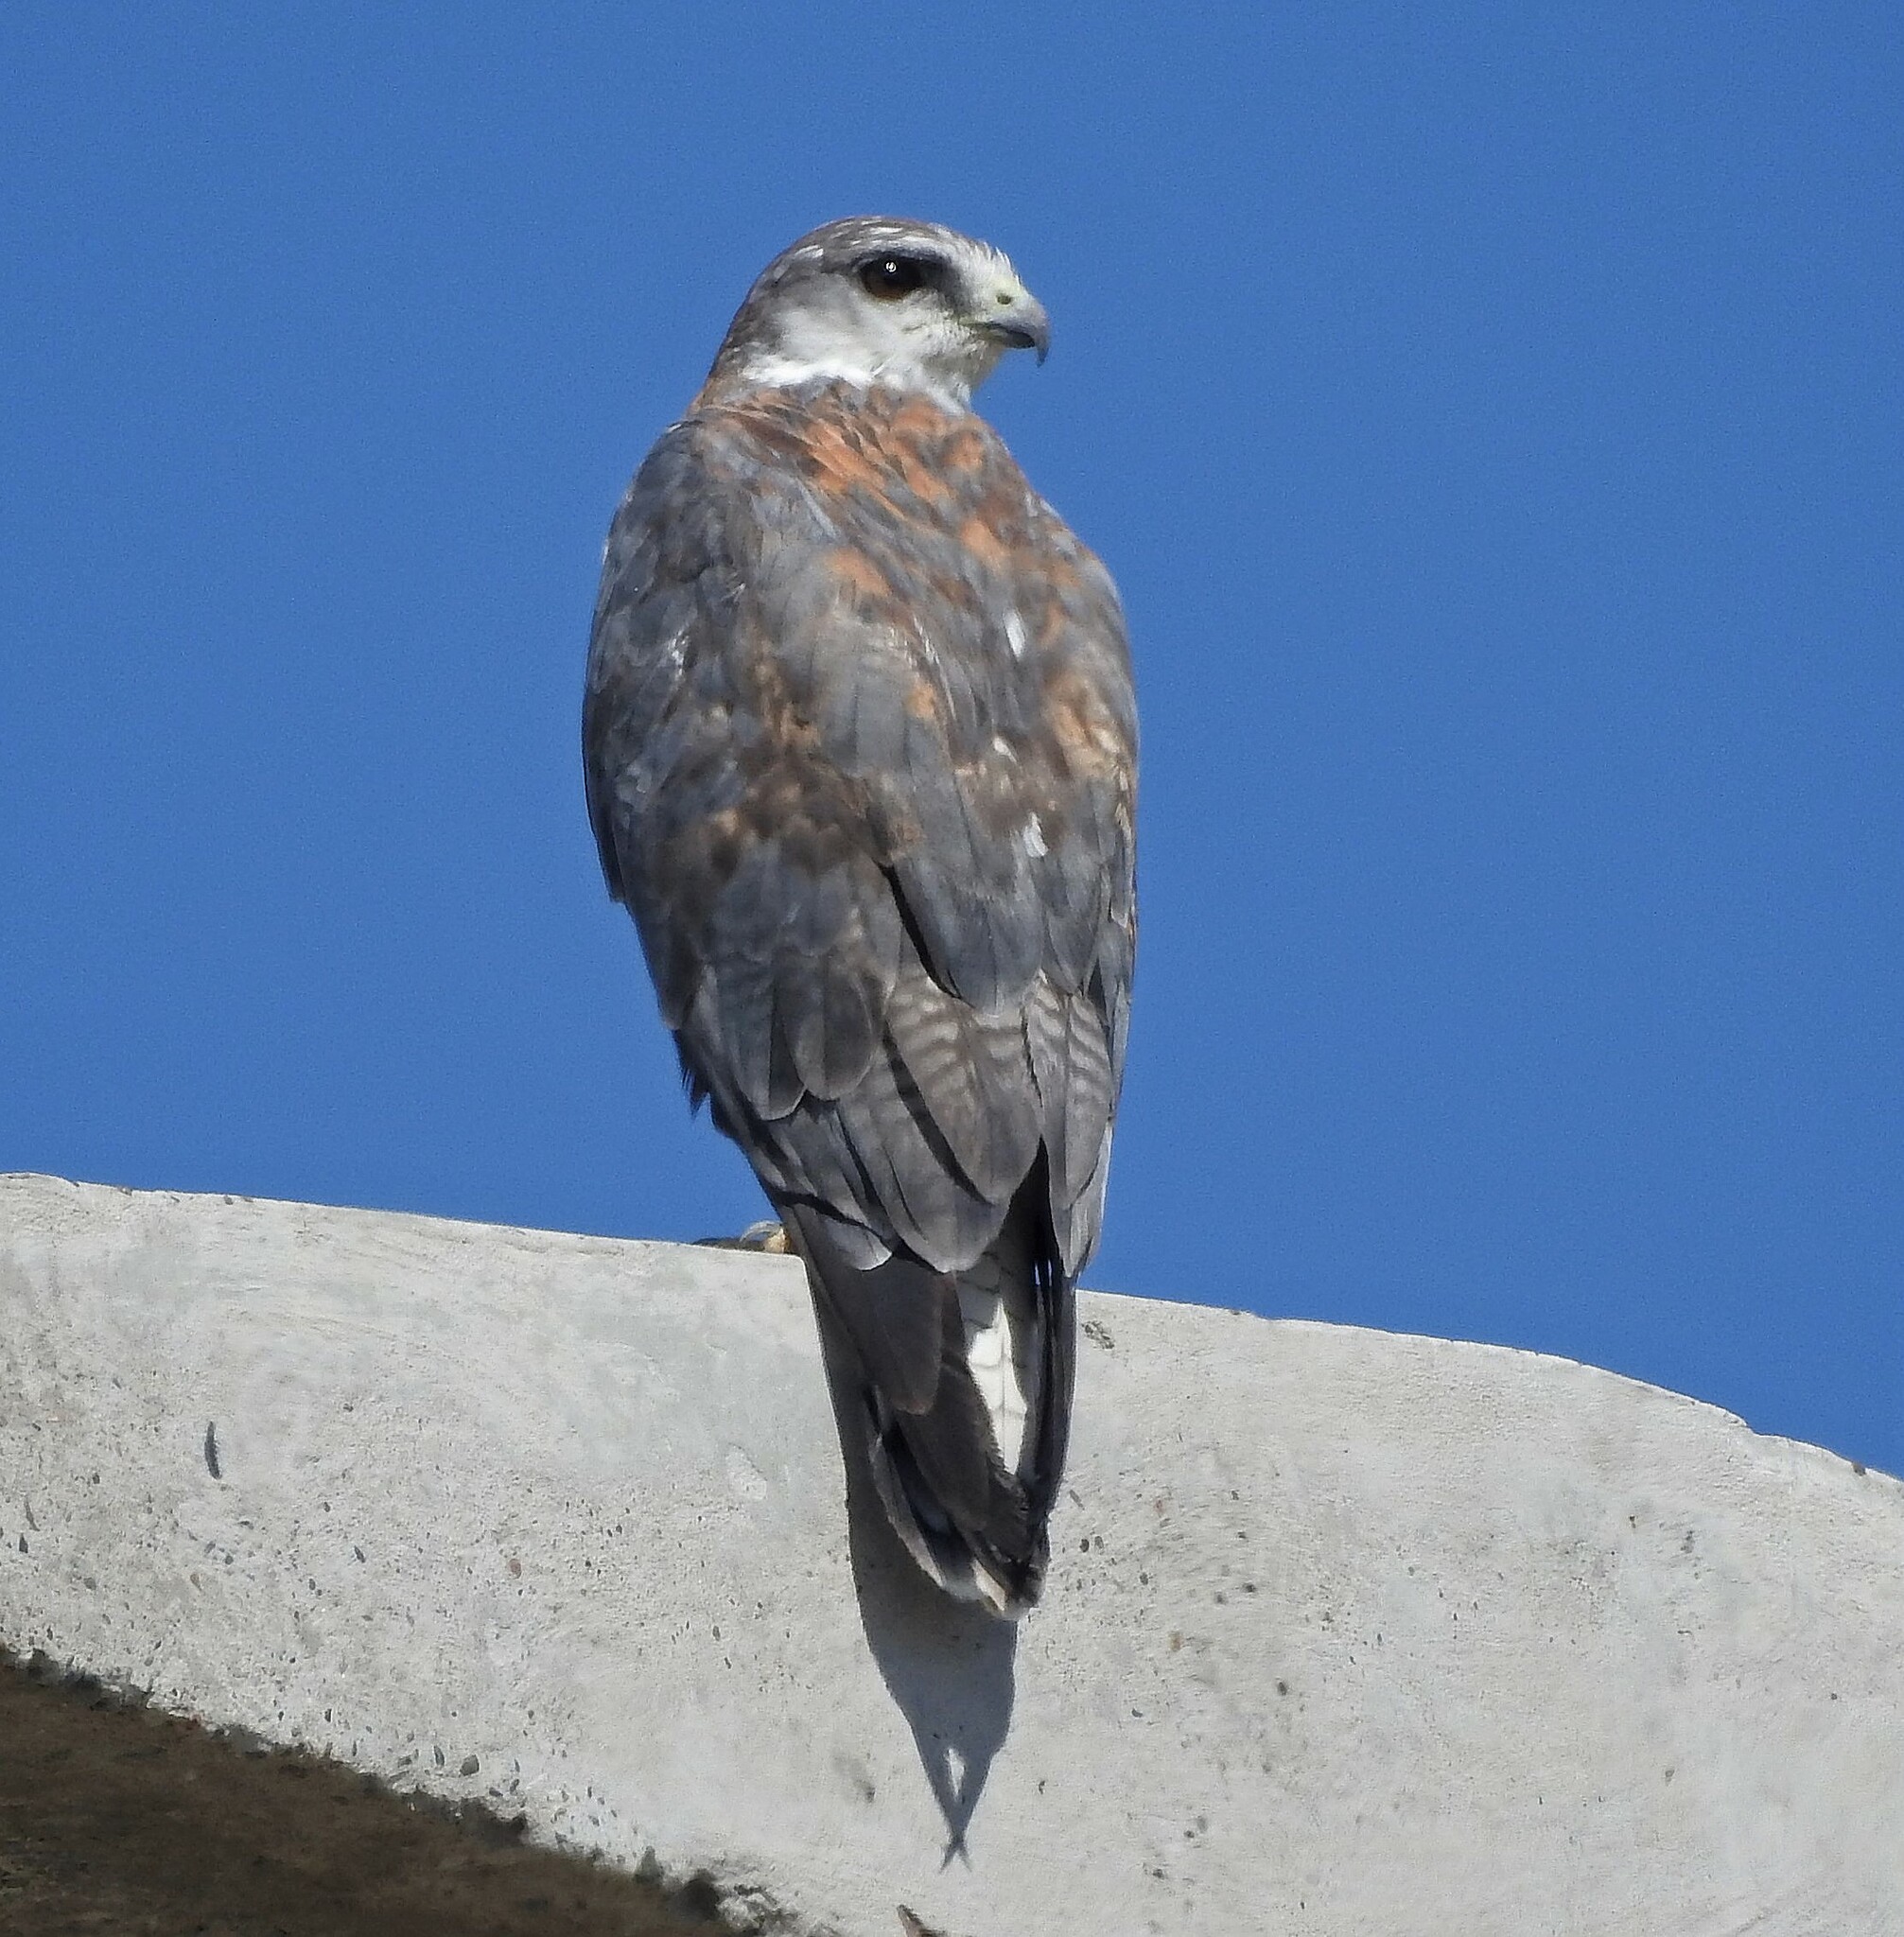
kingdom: Animalia
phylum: Chordata
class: Aves
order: Accipitriformes
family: Accipitridae
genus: Buteo
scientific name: Buteo polyosoma
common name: Variable hawk
